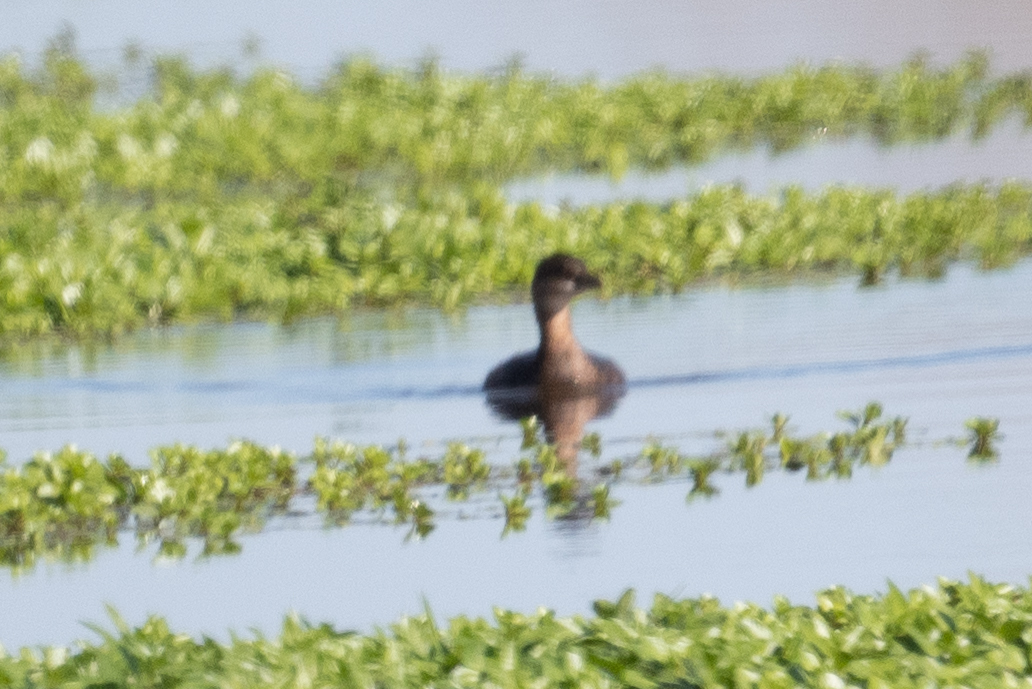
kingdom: Animalia
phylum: Chordata
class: Aves
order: Podicipediformes
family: Podicipedidae
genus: Podilymbus
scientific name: Podilymbus podiceps
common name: Pied-billed grebe
